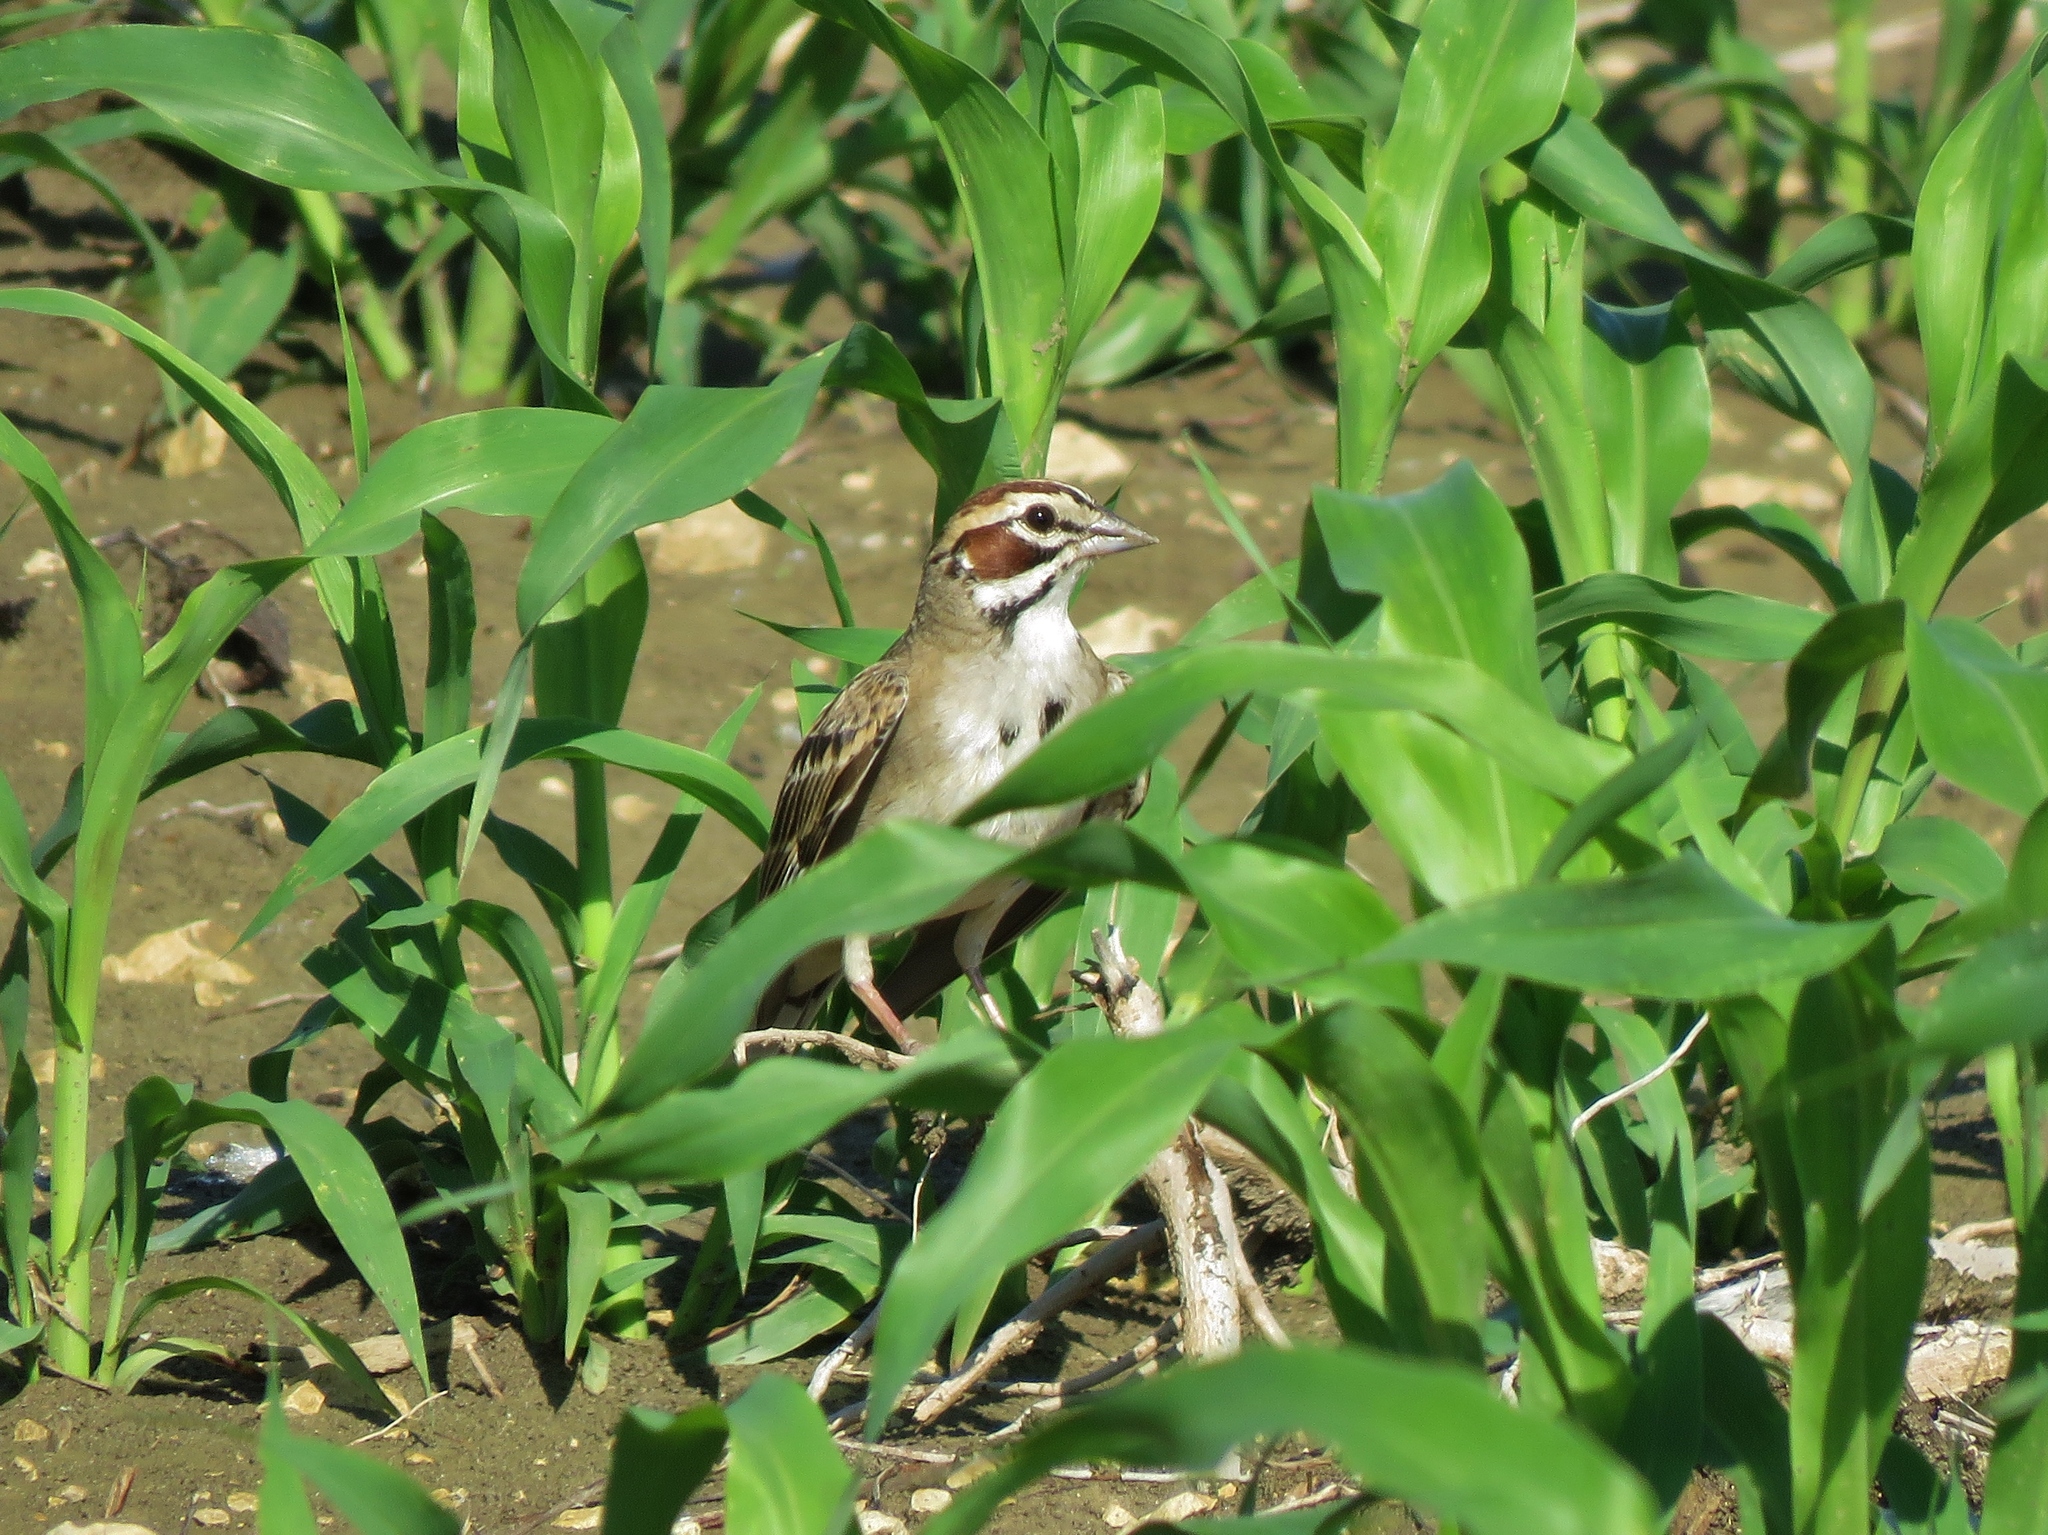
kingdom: Animalia
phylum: Chordata
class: Aves
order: Passeriformes
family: Passerellidae
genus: Chondestes
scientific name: Chondestes grammacus
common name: Lark sparrow
